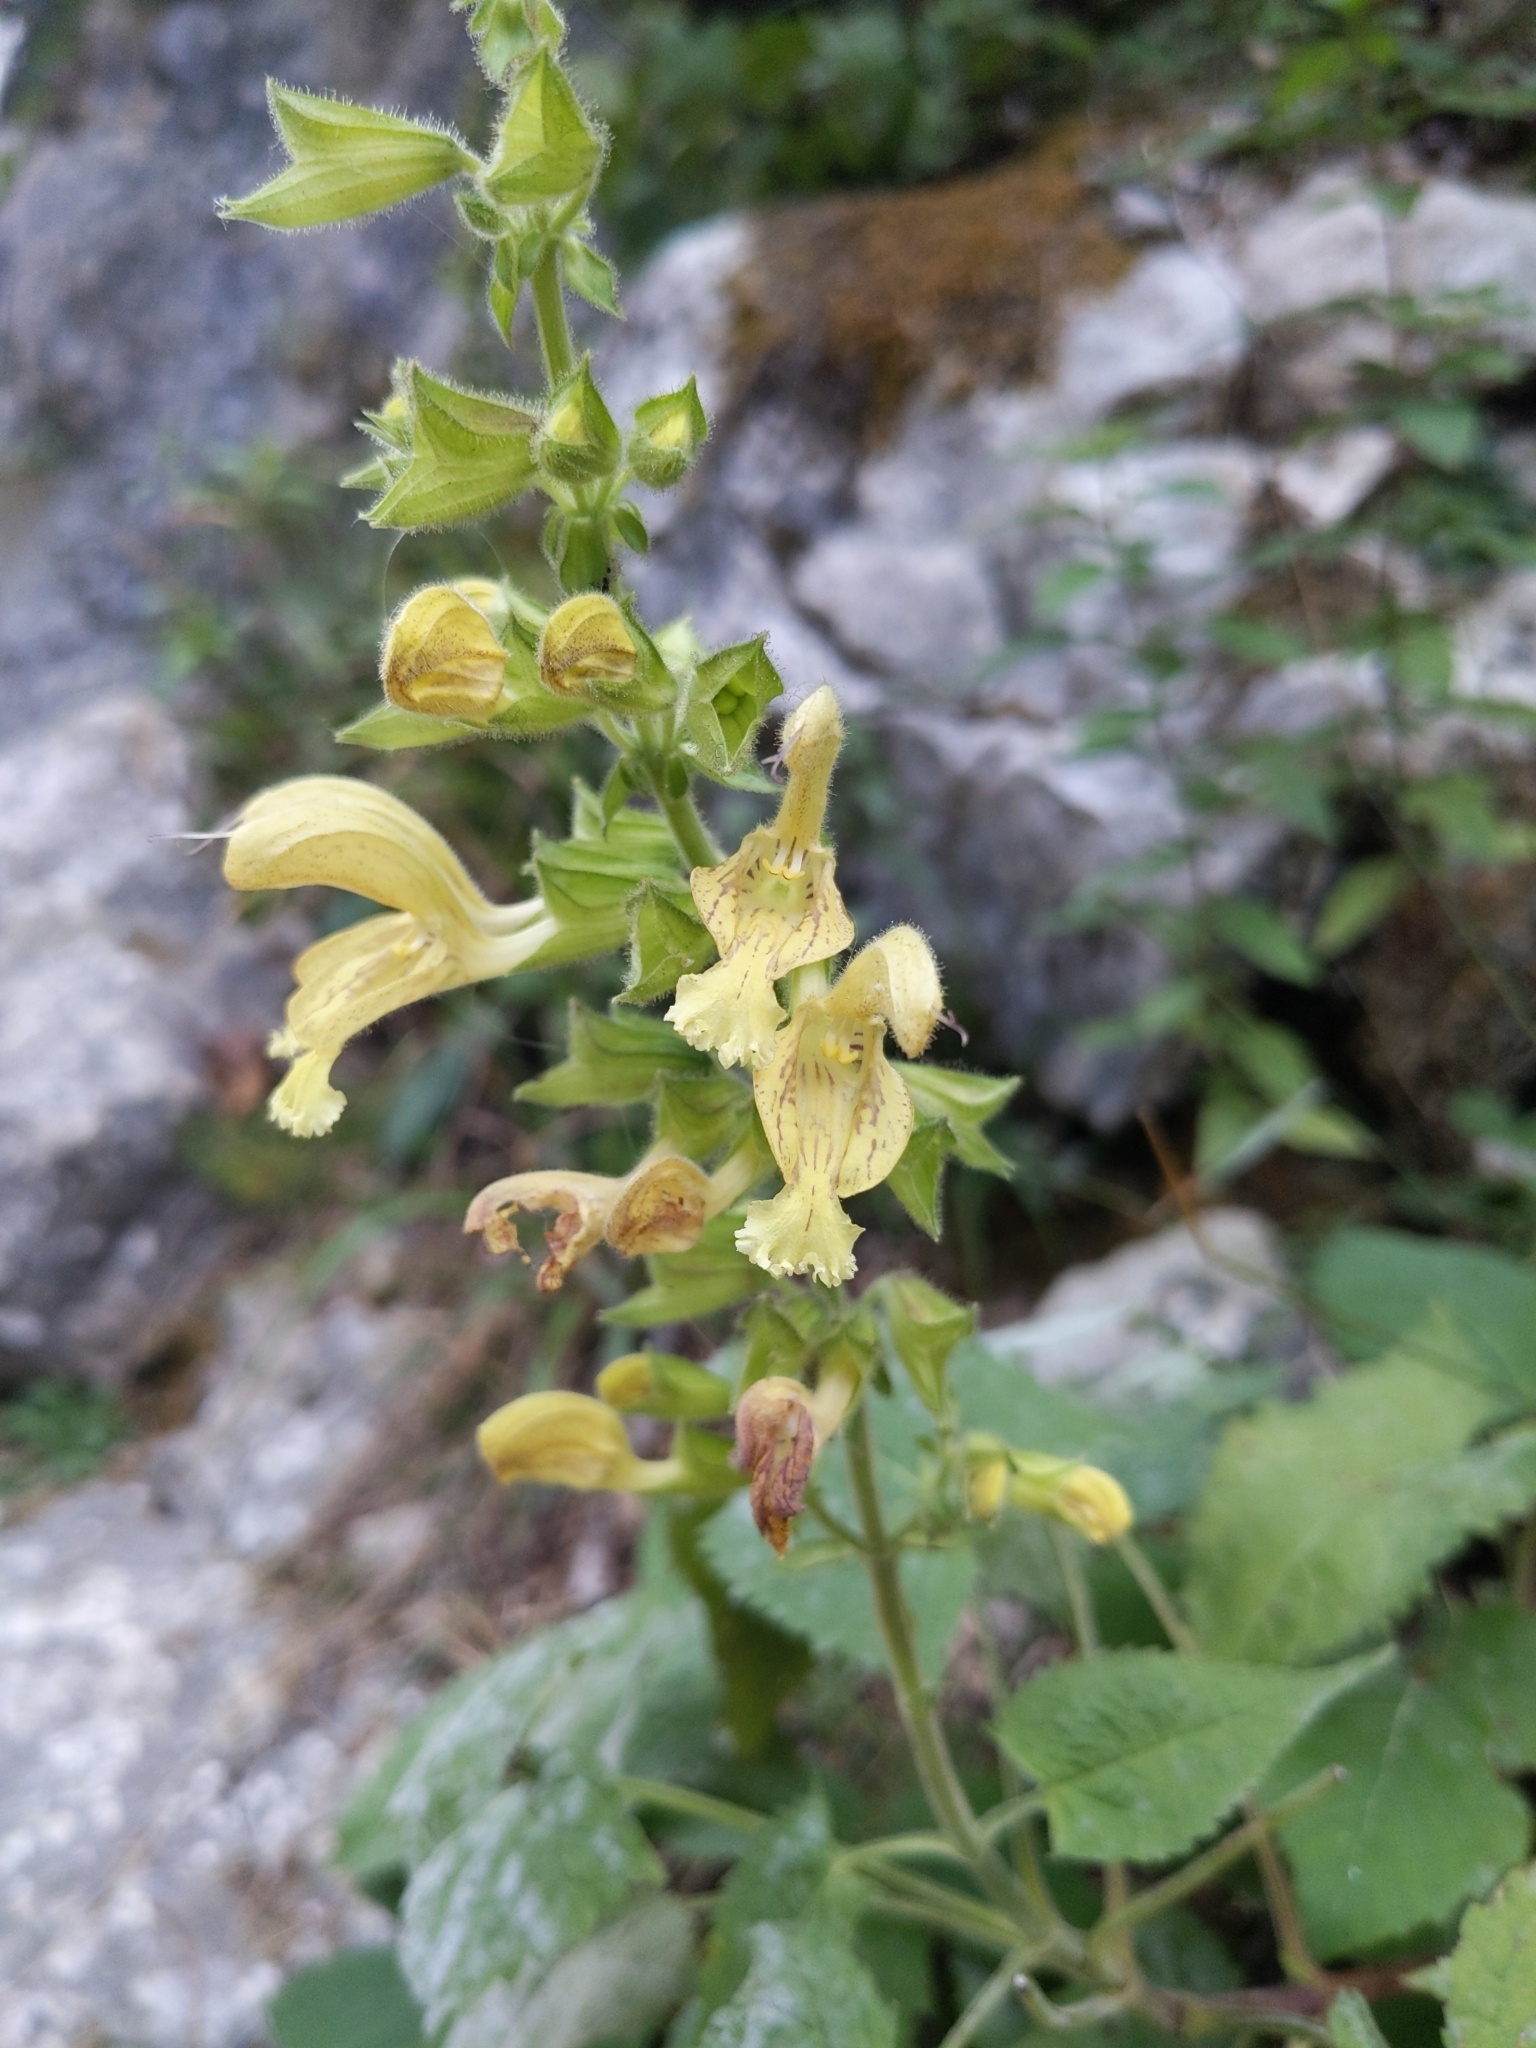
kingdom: Plantae
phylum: Tracheophyta
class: Magnoliopsida
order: Lamiales
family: Lamiaceae
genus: Salvia
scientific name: Salvia glutinosa
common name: Sticky clary
